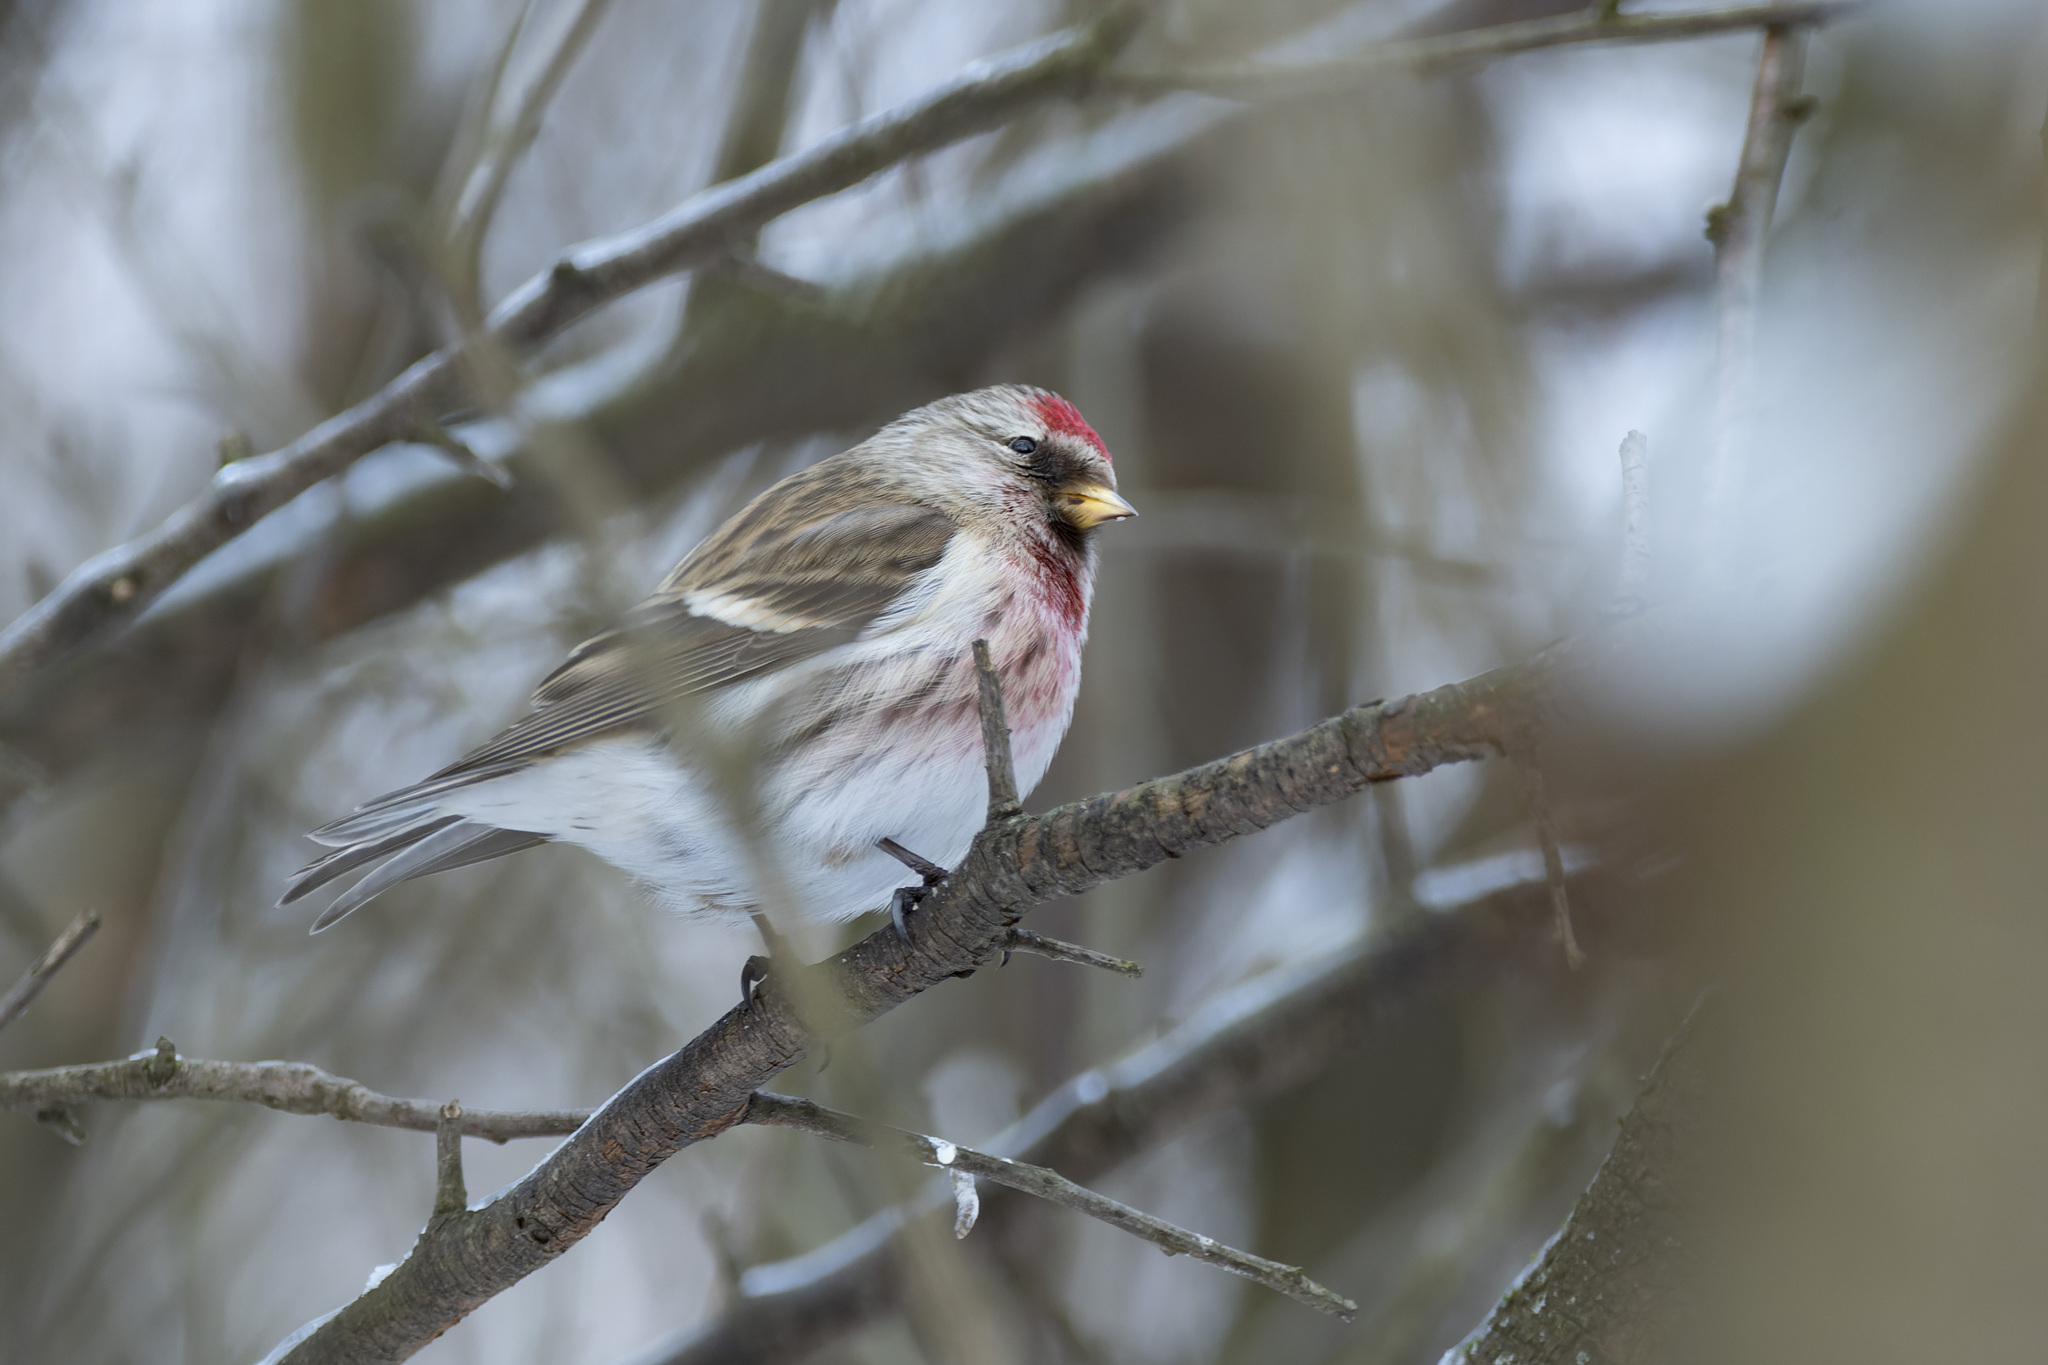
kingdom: Animalia
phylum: Chordata
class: Aves
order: Passeriformes
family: Fringillidae
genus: Acanthis
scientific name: Acanthis flammea
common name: Common redpoll
